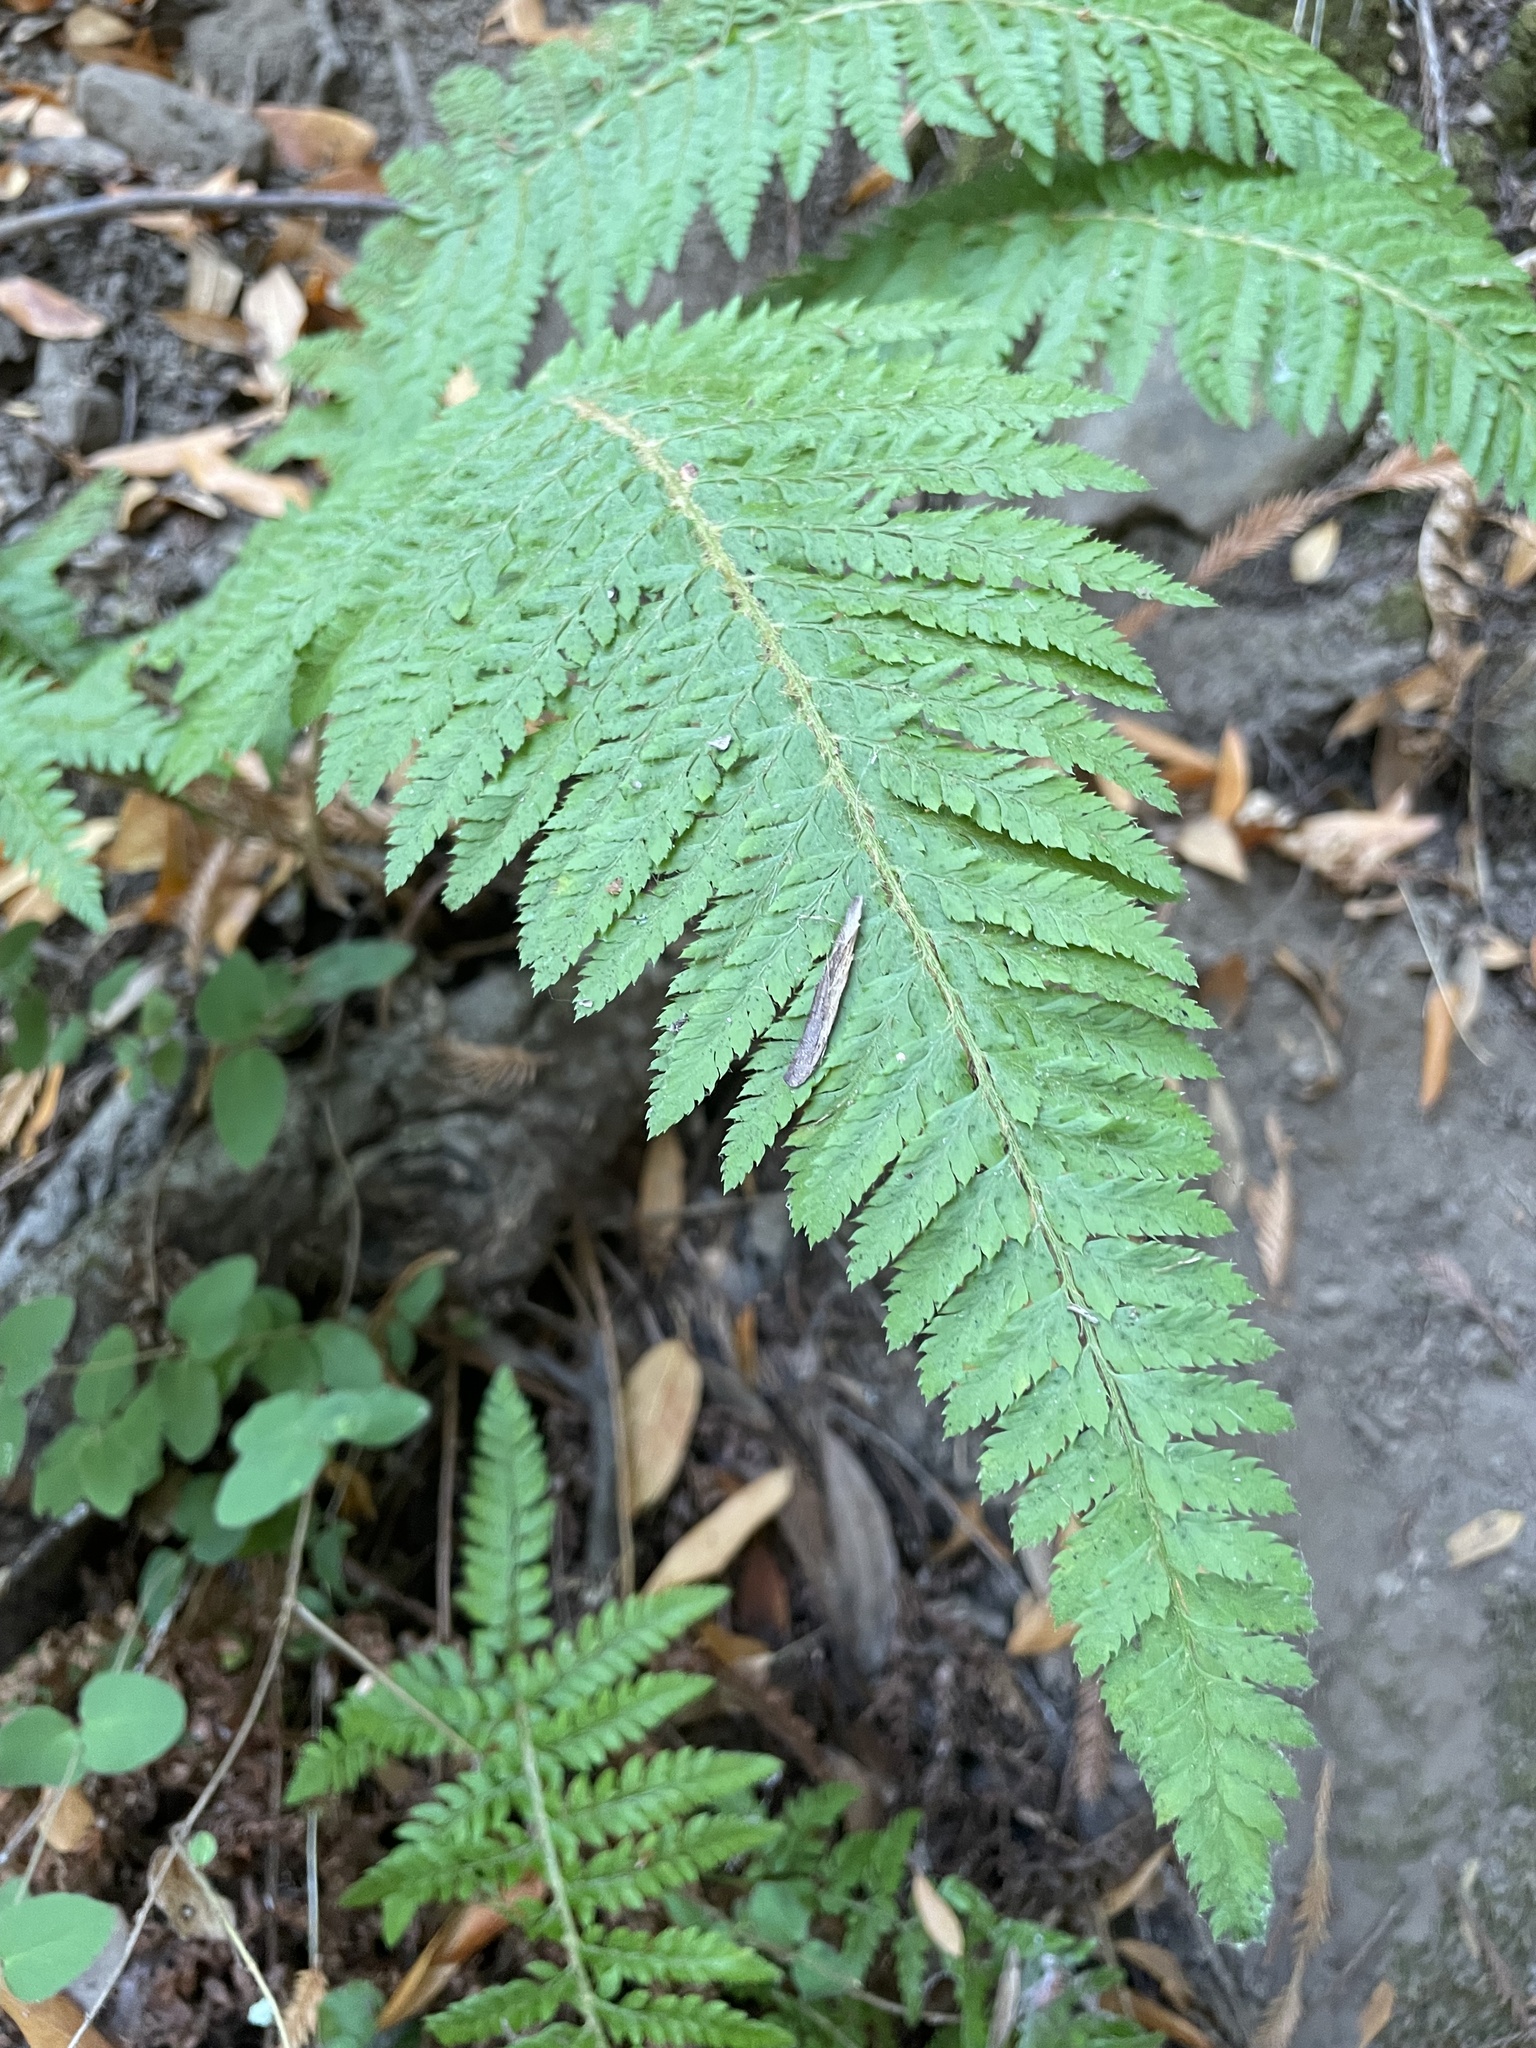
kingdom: Plantae
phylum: Tracheophyta
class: Polypodiopsida
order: Polypodiales
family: Dryopteridaceae
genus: Polystichum
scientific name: Polystichum dudleyi
